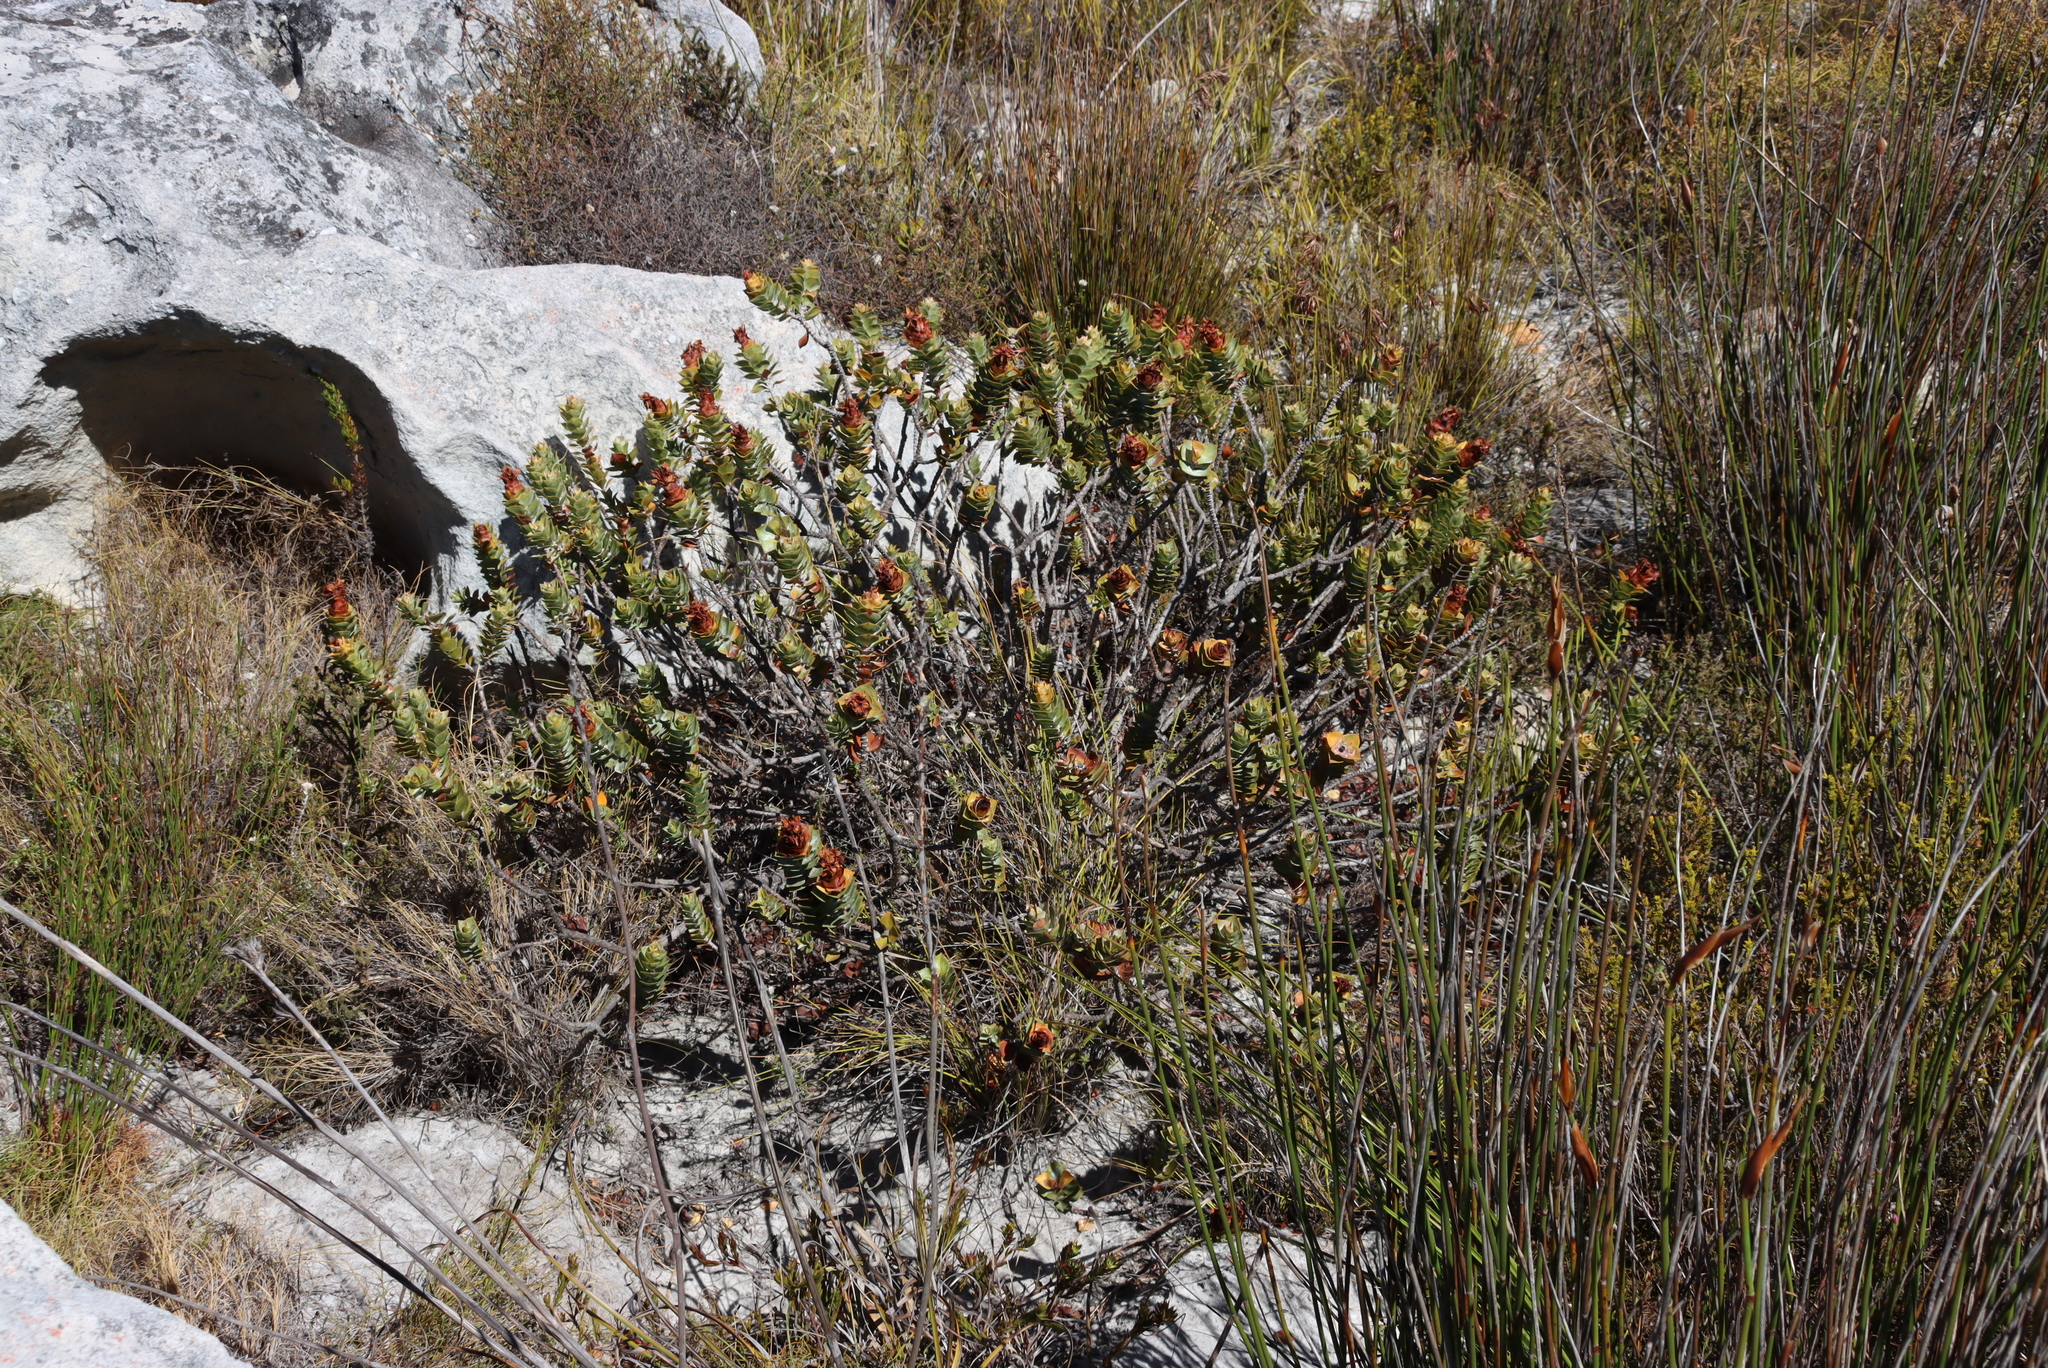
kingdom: Plantae
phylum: Tracheophyta
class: Magnoliopsida
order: Myrtales
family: Penaeaceae
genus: Saltera
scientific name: Saltera sarcocolla
